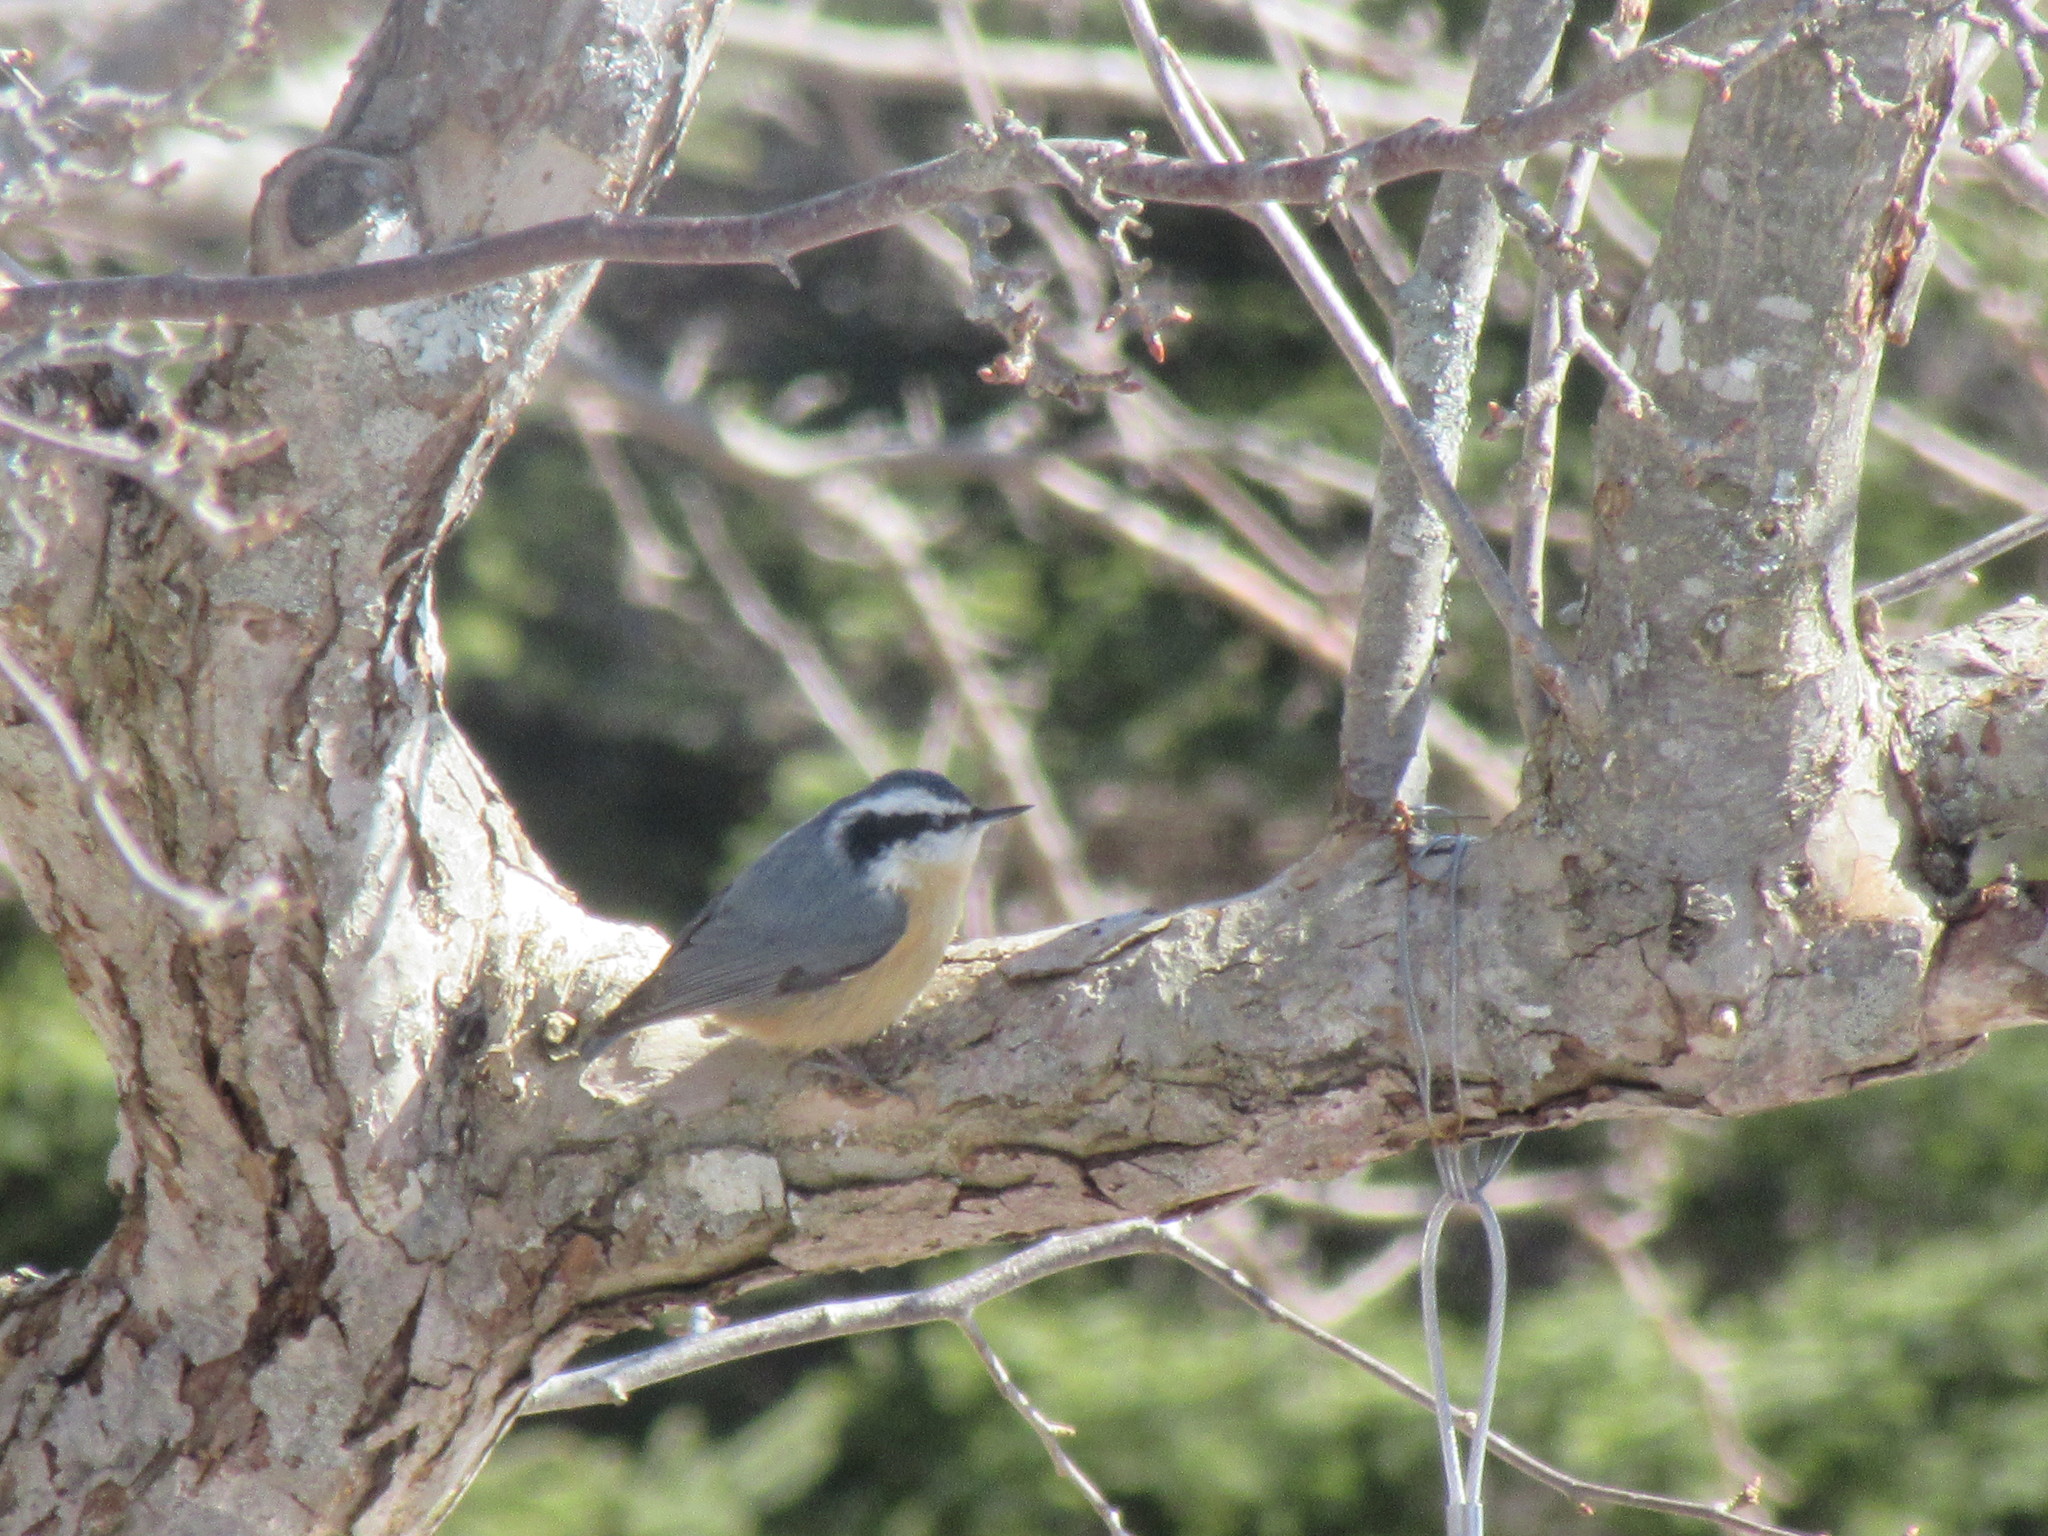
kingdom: Animalia
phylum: Chordata
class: Aves
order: Passeriformes
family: Sittidae
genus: Sitta
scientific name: Sitta canadensis
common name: Red-breasted nuthatch
